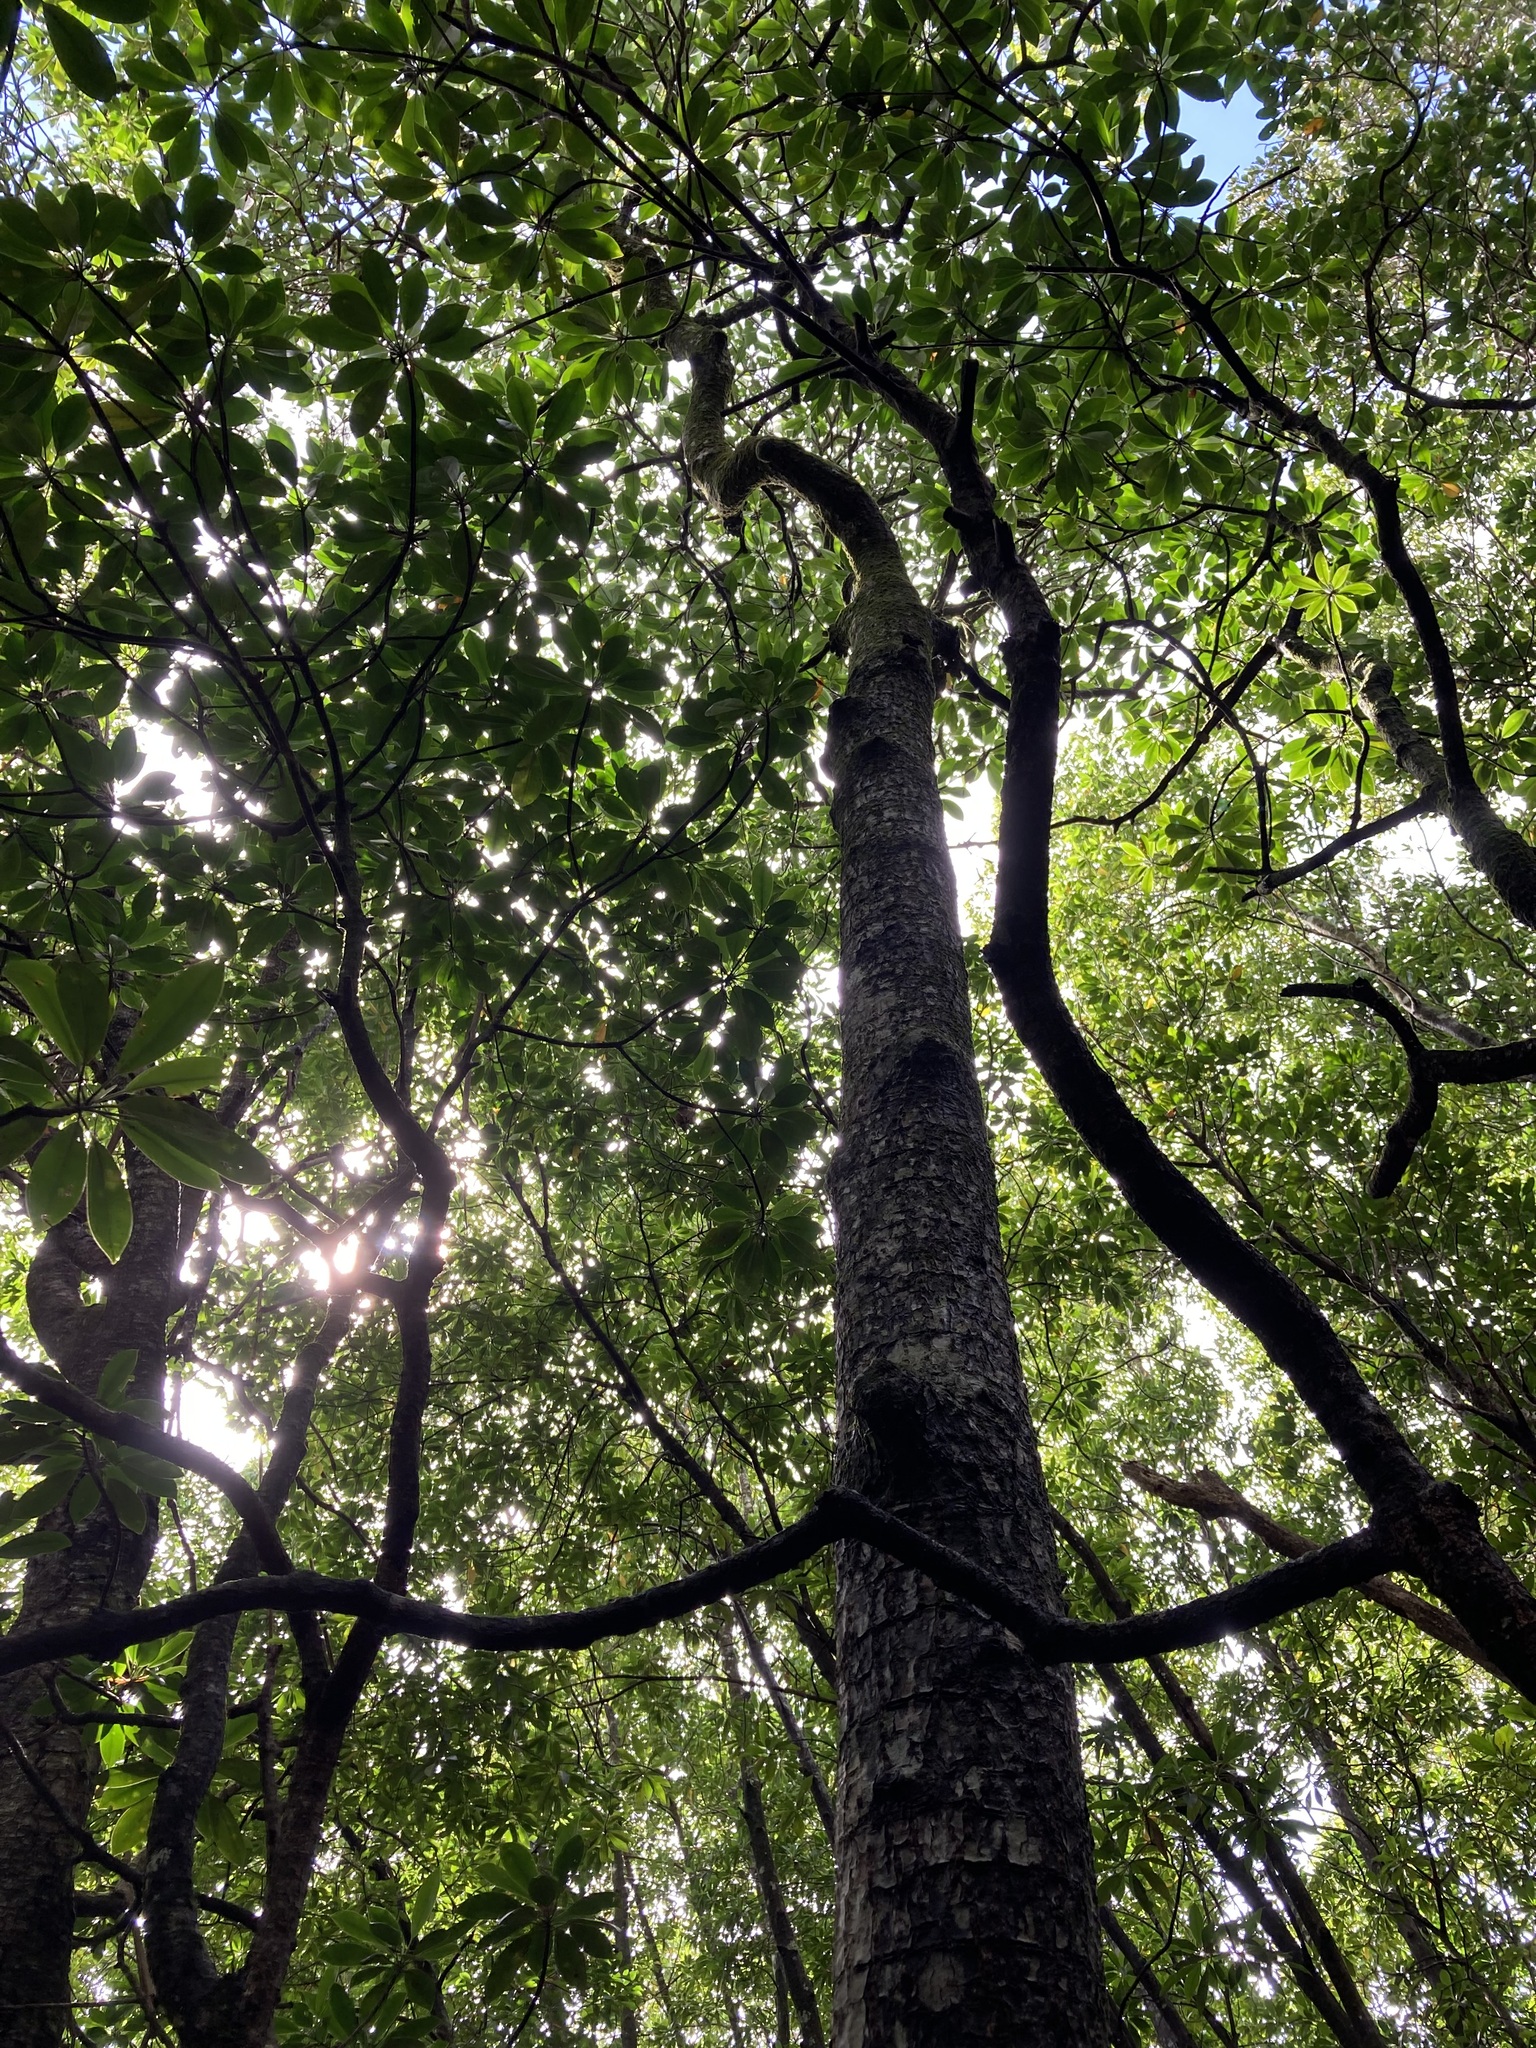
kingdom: Plantae
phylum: Tracheophyta
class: Magnoliopsida
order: Malpighiales
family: Rhizophoraceae
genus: Rhizophora
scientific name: Rhizophora apiculata
